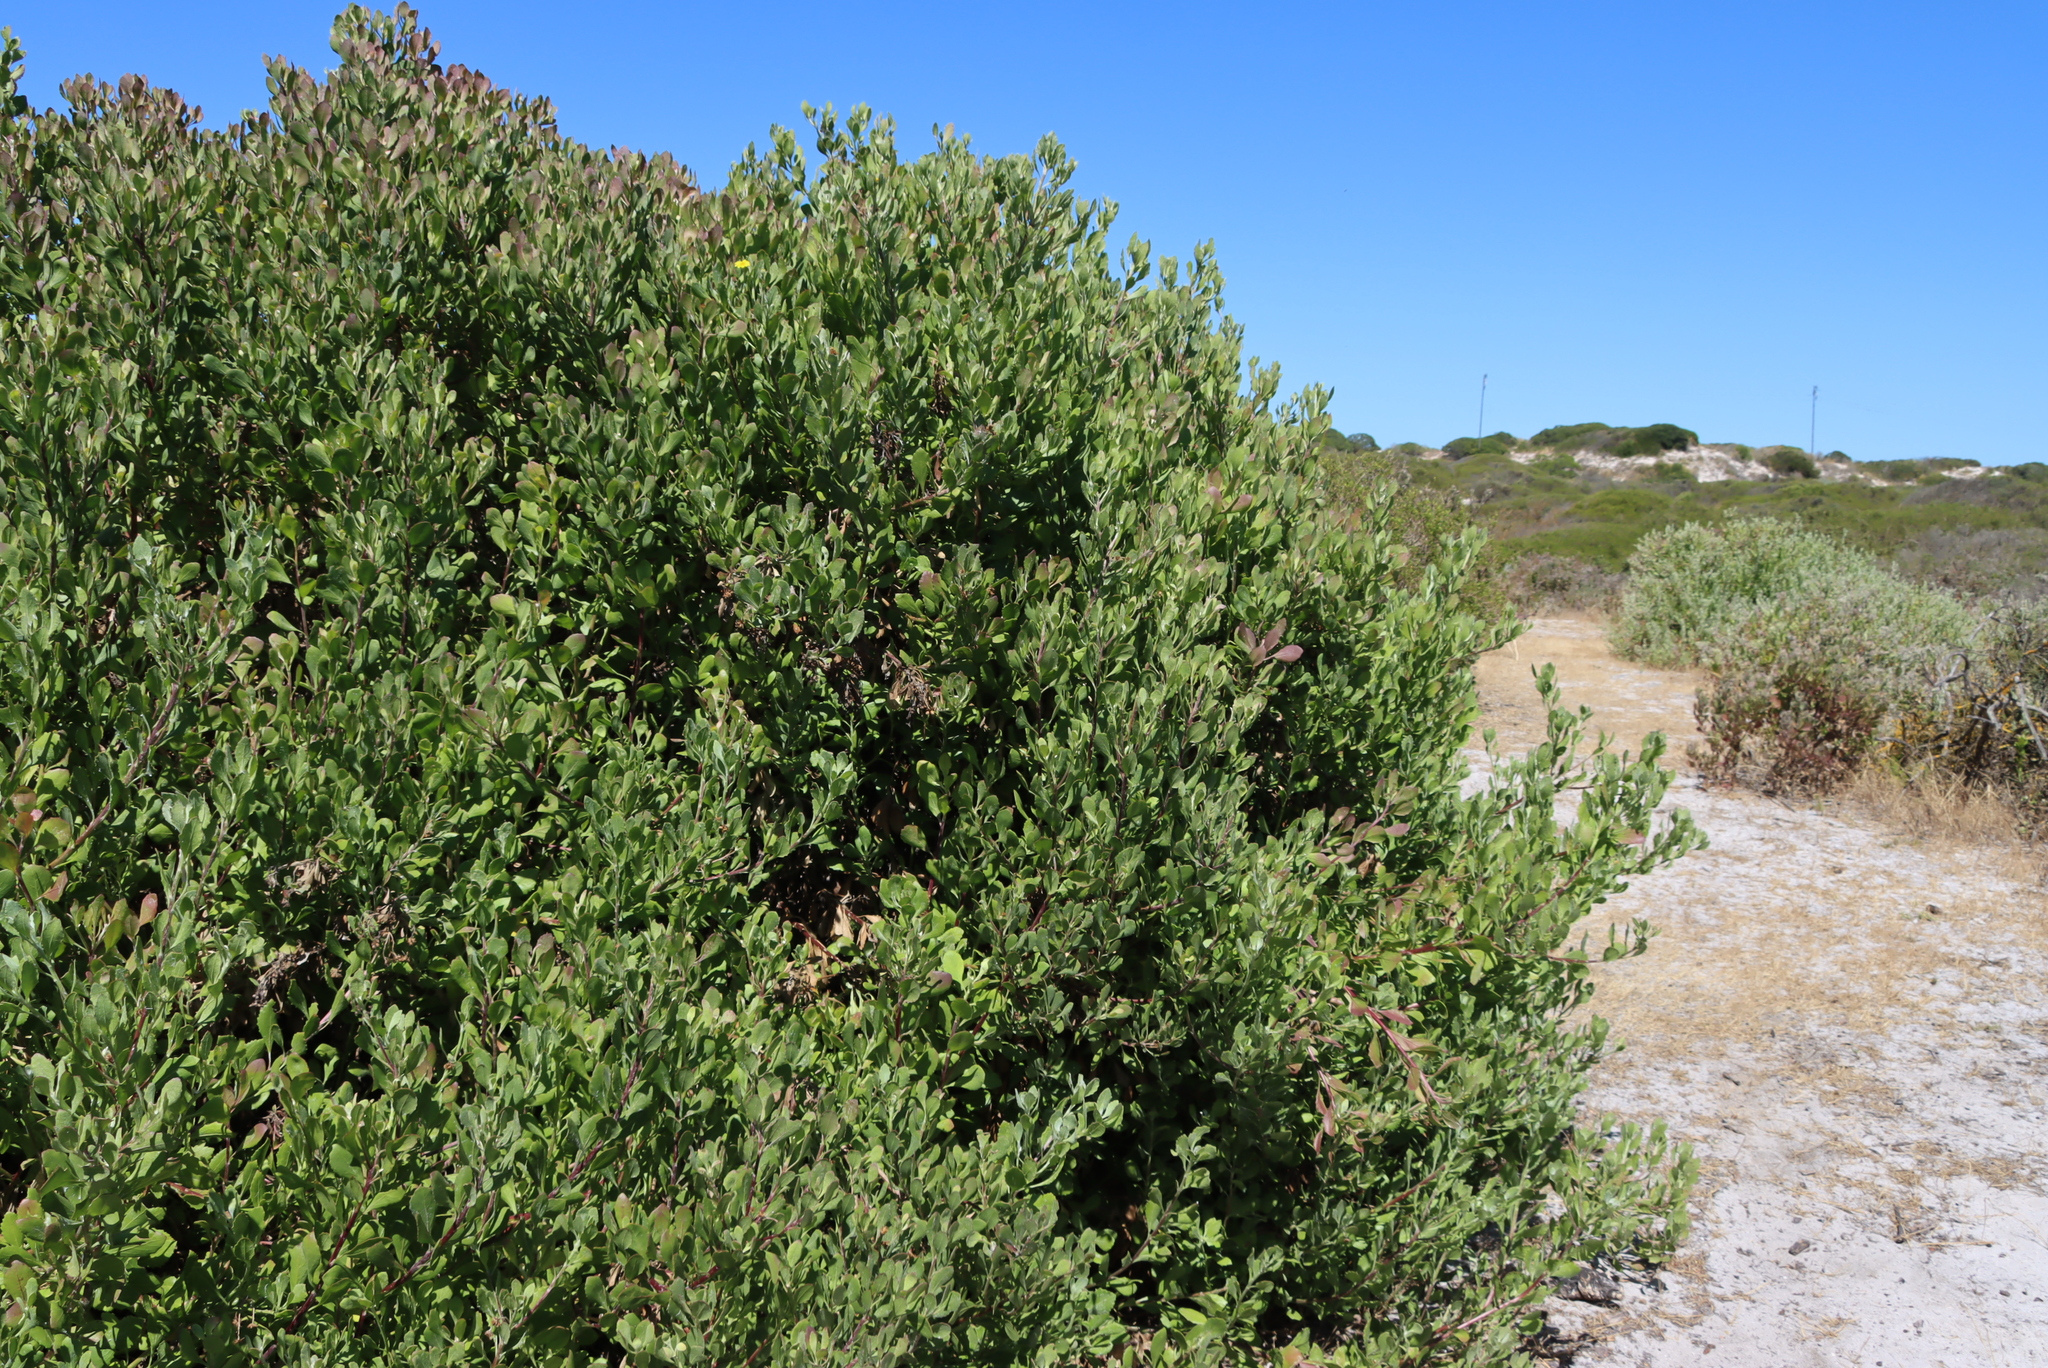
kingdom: Plantae
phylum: Tracheophyta
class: Magnoliopsida
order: Asterales
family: Asteraceae
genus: Osteospermum
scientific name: Osteospermum moniliferum
